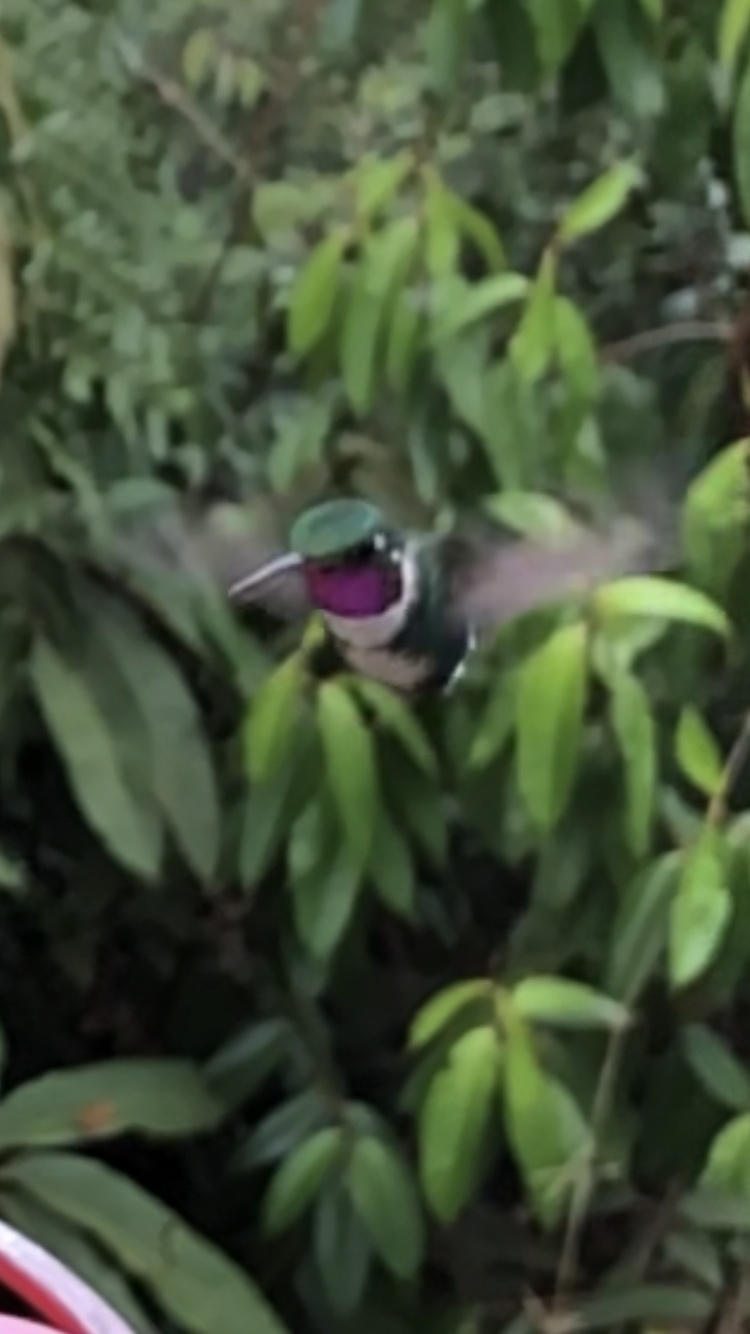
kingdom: Animalia
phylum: Chordata
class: Aves
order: Apodiformes
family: Trochilidae
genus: Chaetocercus
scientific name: Chaetocercus mulsant
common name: White-bellied woodstar
